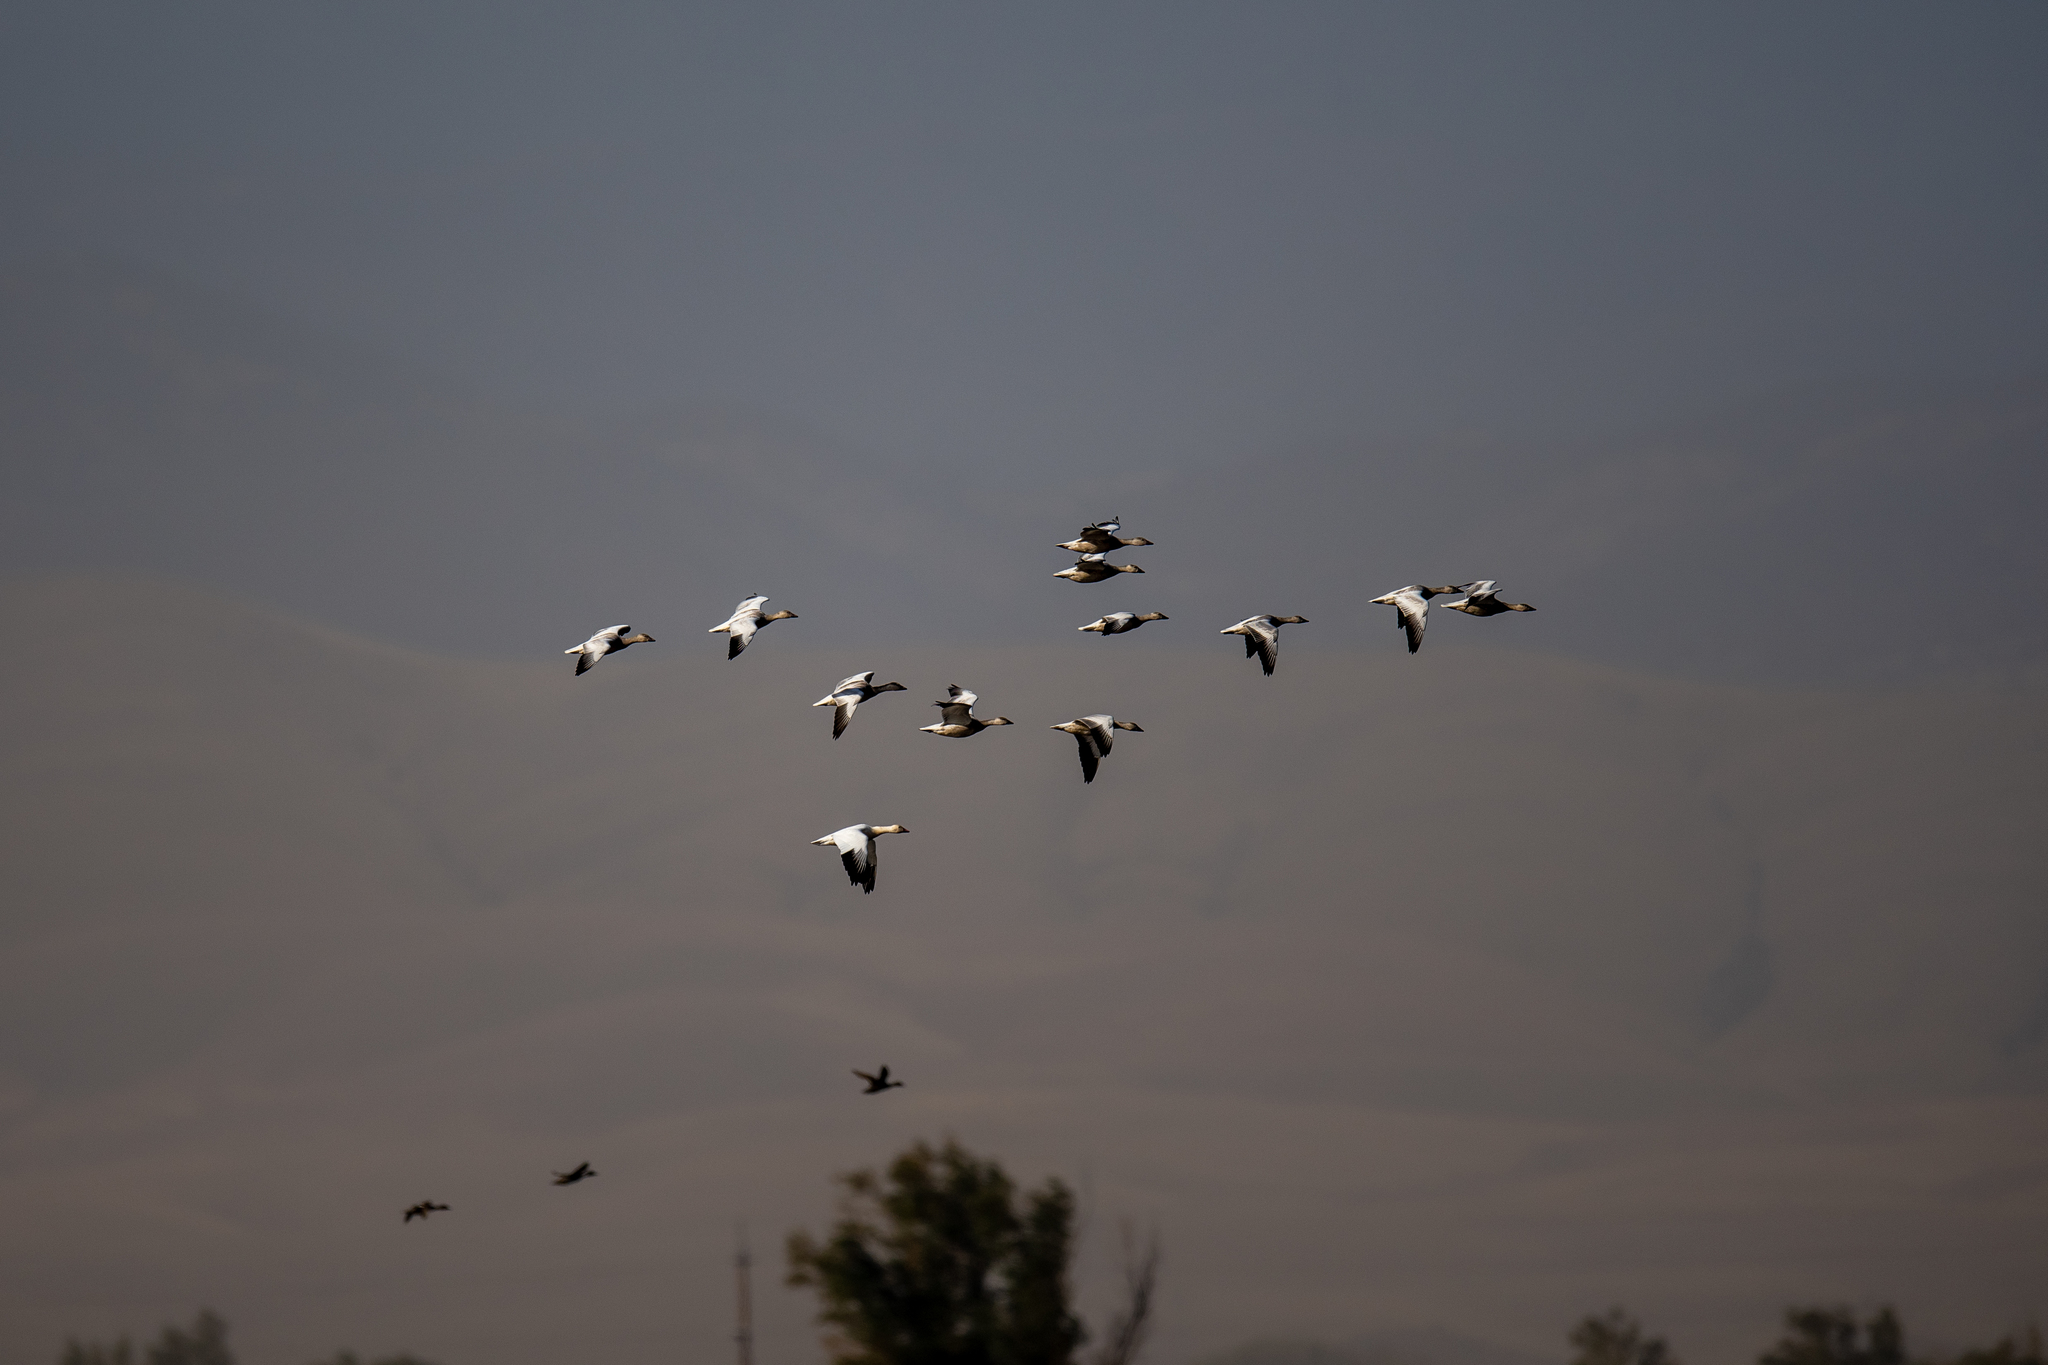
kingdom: Animalia
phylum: Chordata
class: Aves
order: Anseriformes
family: Anatidae
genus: Anser
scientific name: Anser caerulescens
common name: Snow goose
